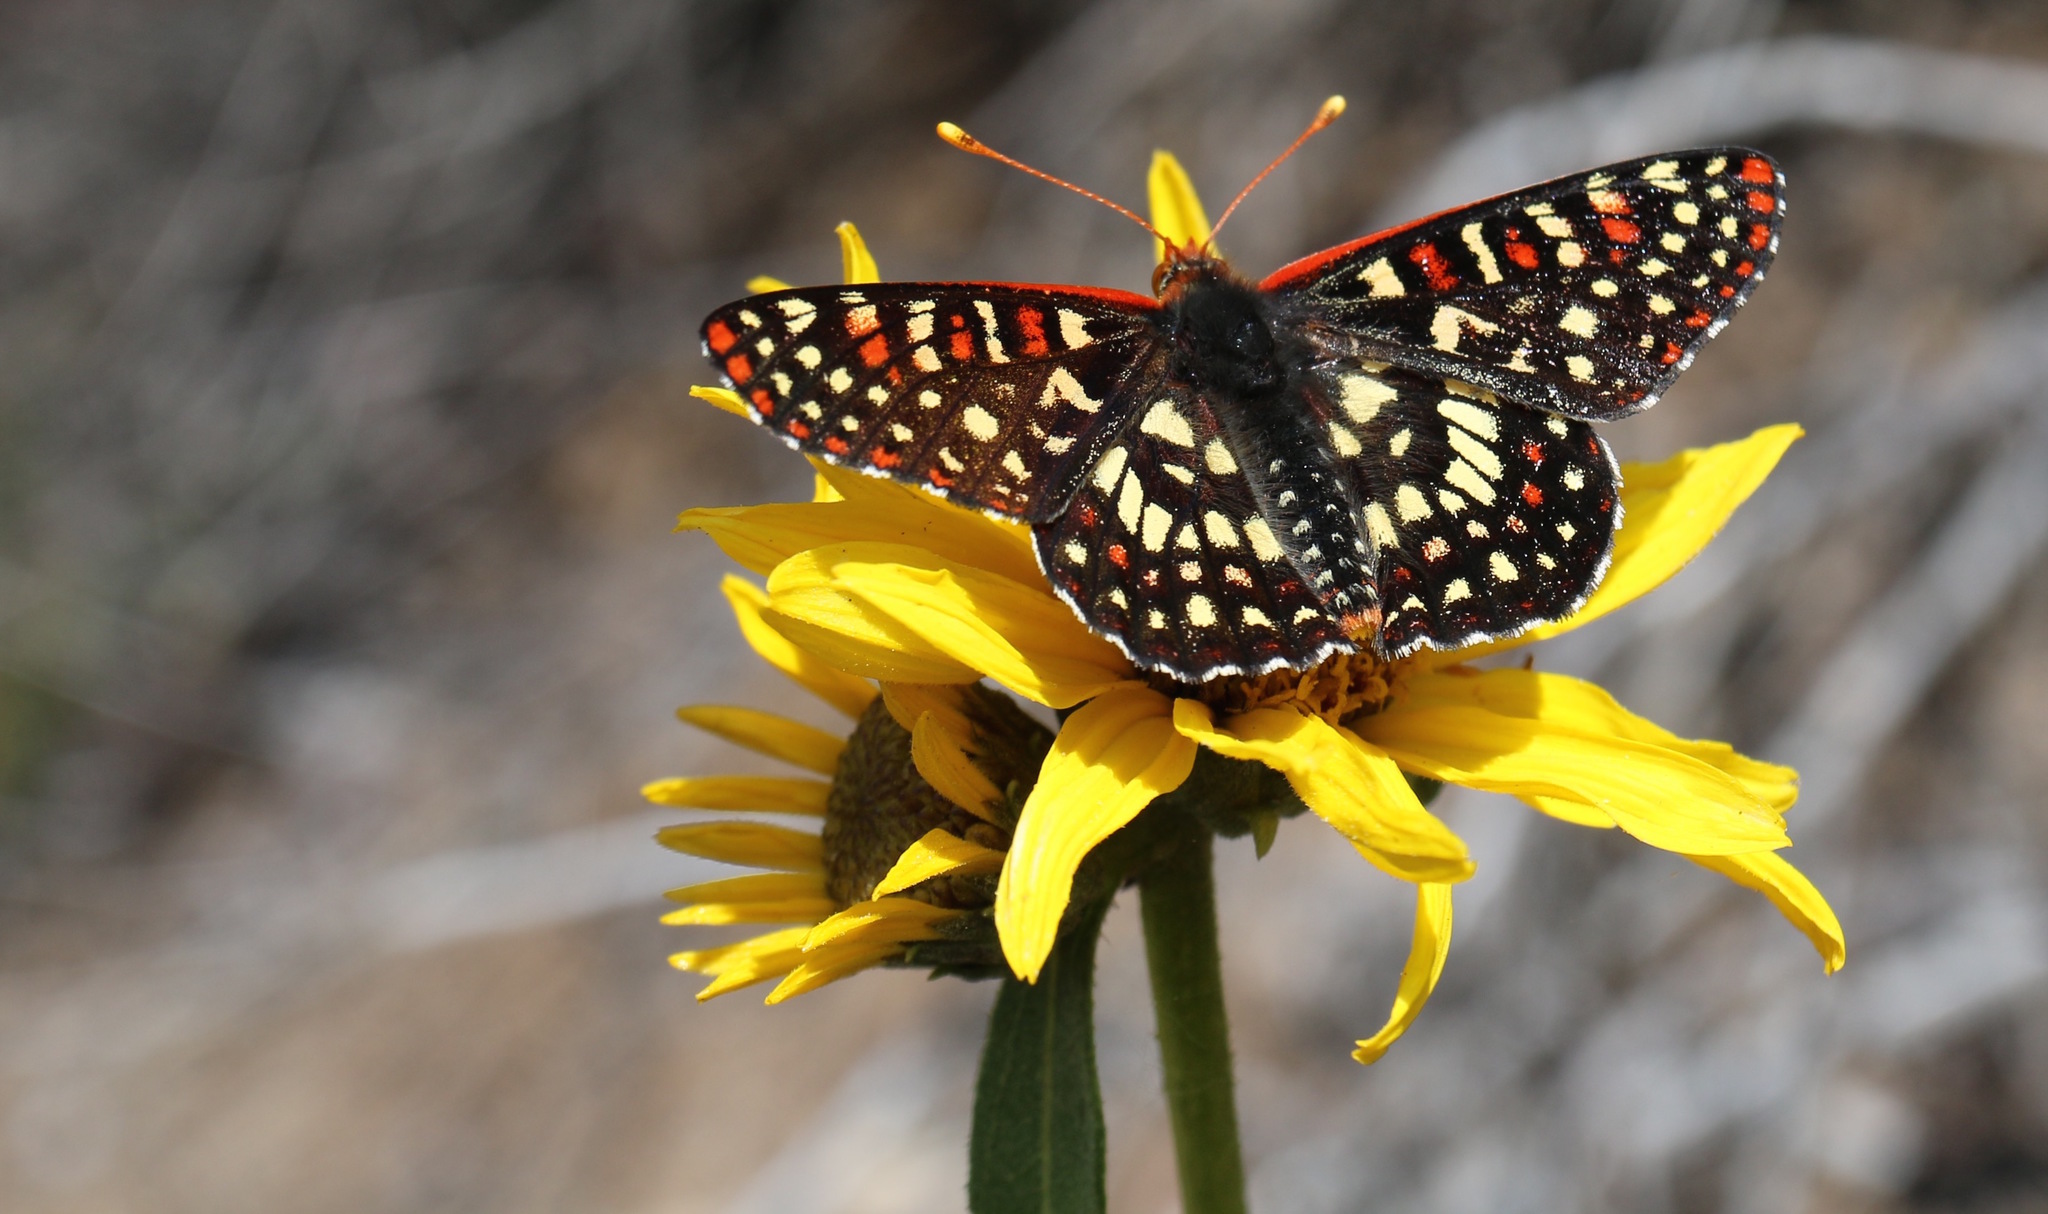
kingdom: Animalia
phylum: Arthropoda
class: Insecta
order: Lepidoptera
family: Nymphalidae
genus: Occidryas
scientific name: Occidryas chalcedona
